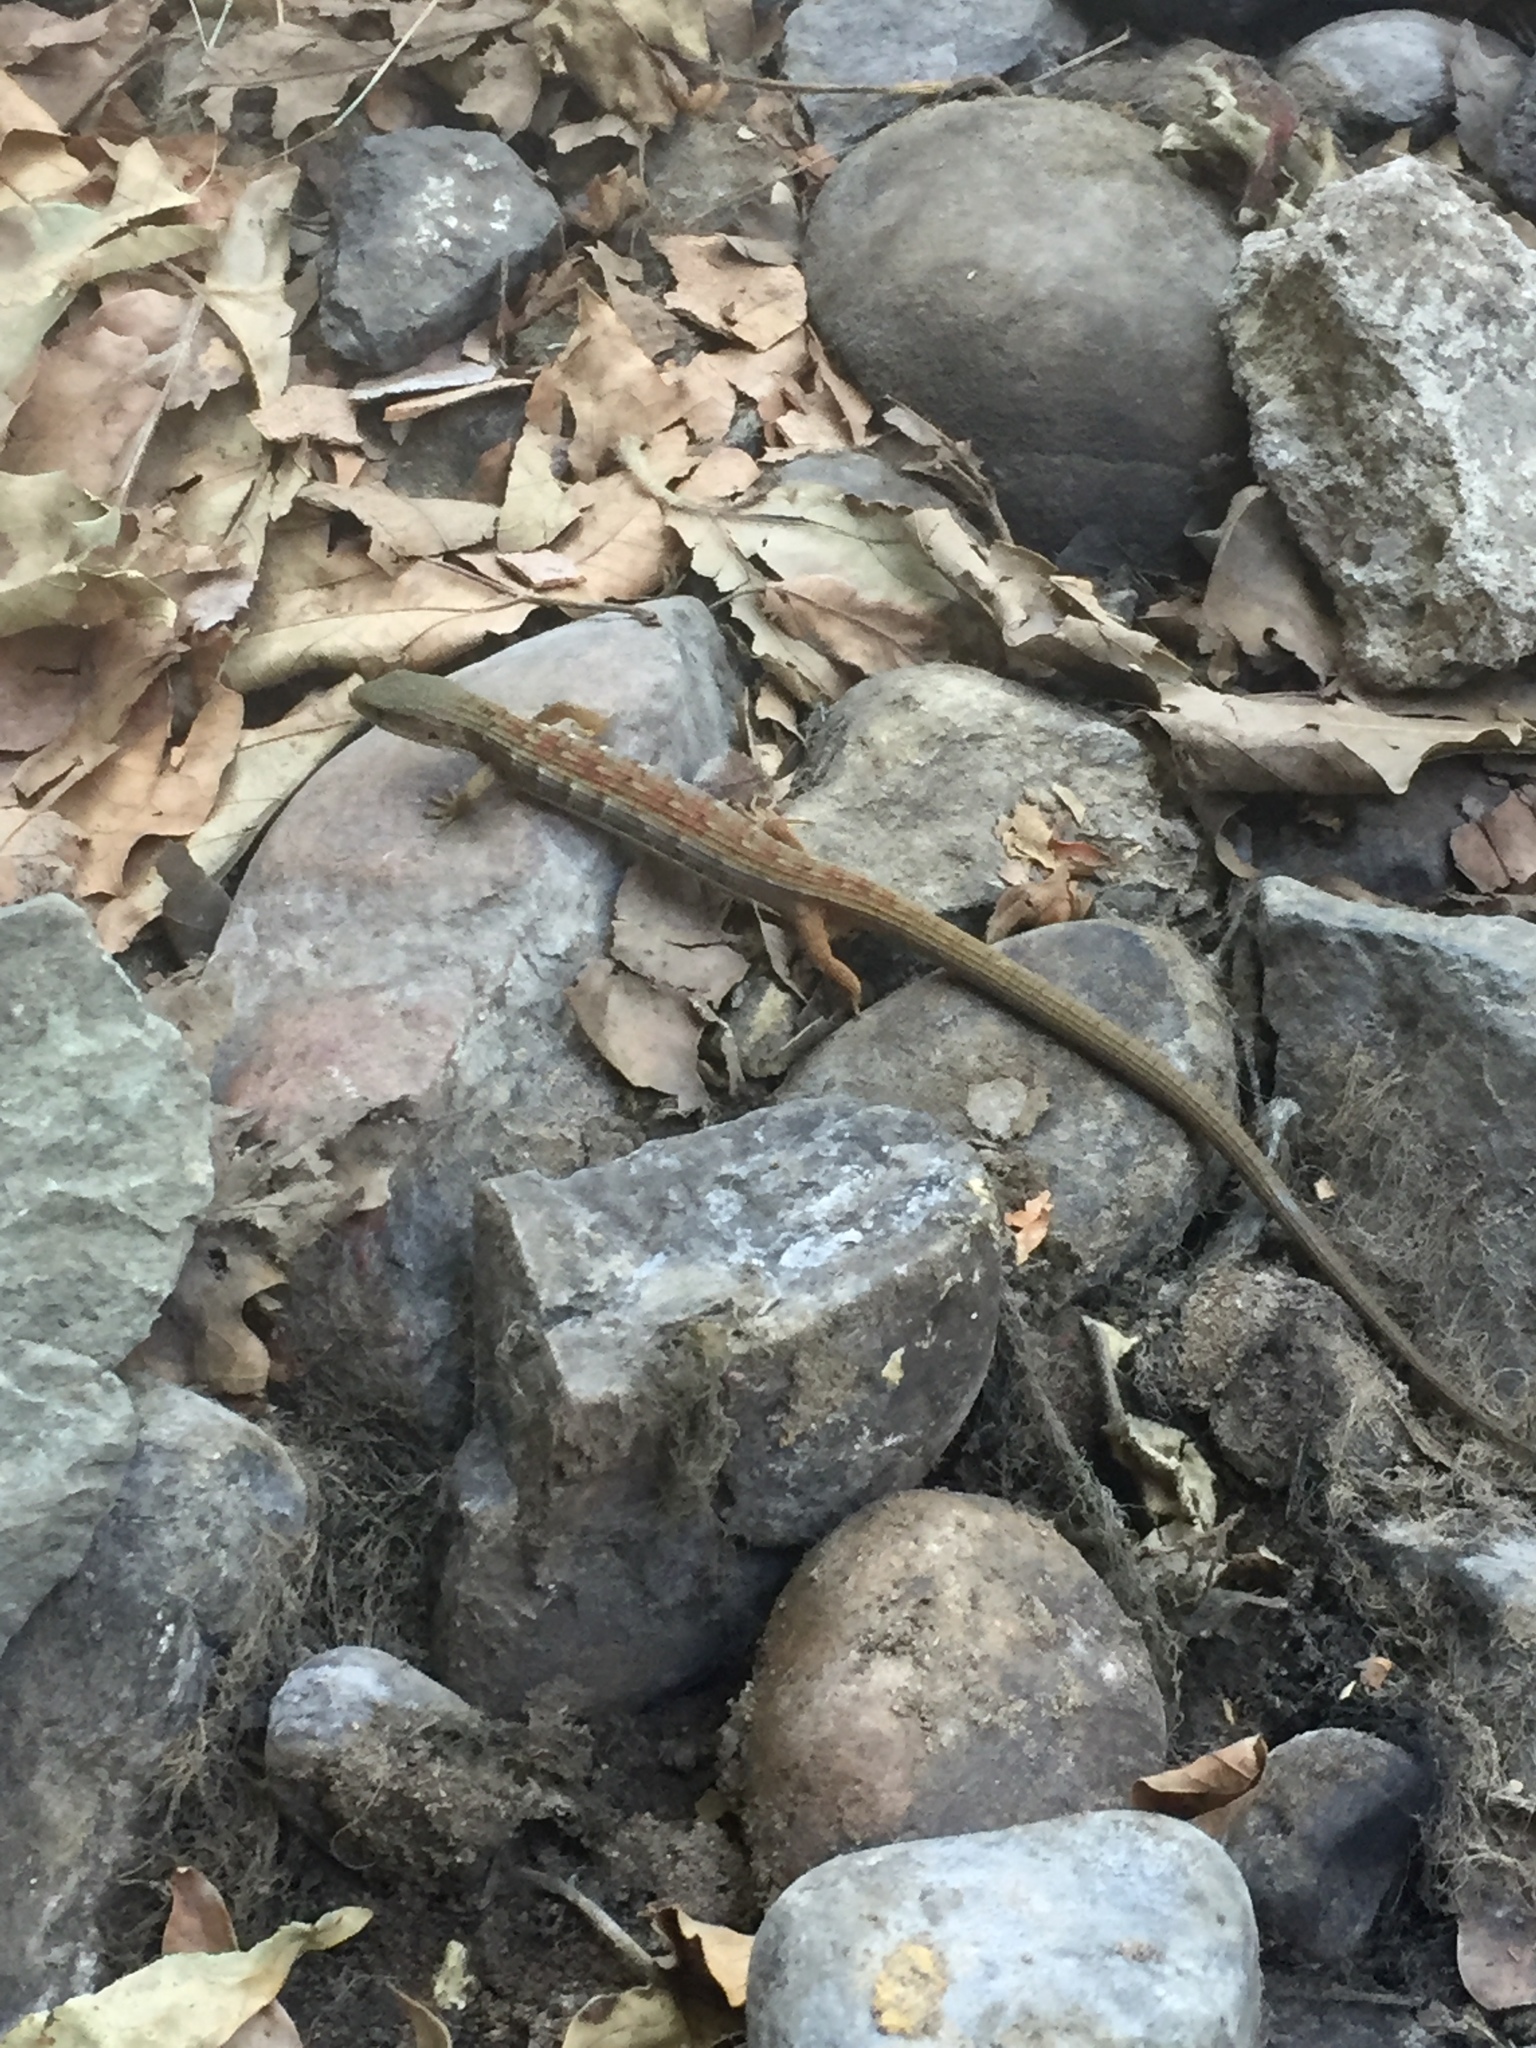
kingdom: Animalia
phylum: Chordata
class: Squamata
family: Anguidae
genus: Elgaria
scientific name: Elgaria multicarinata
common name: Southern alligator lizard
